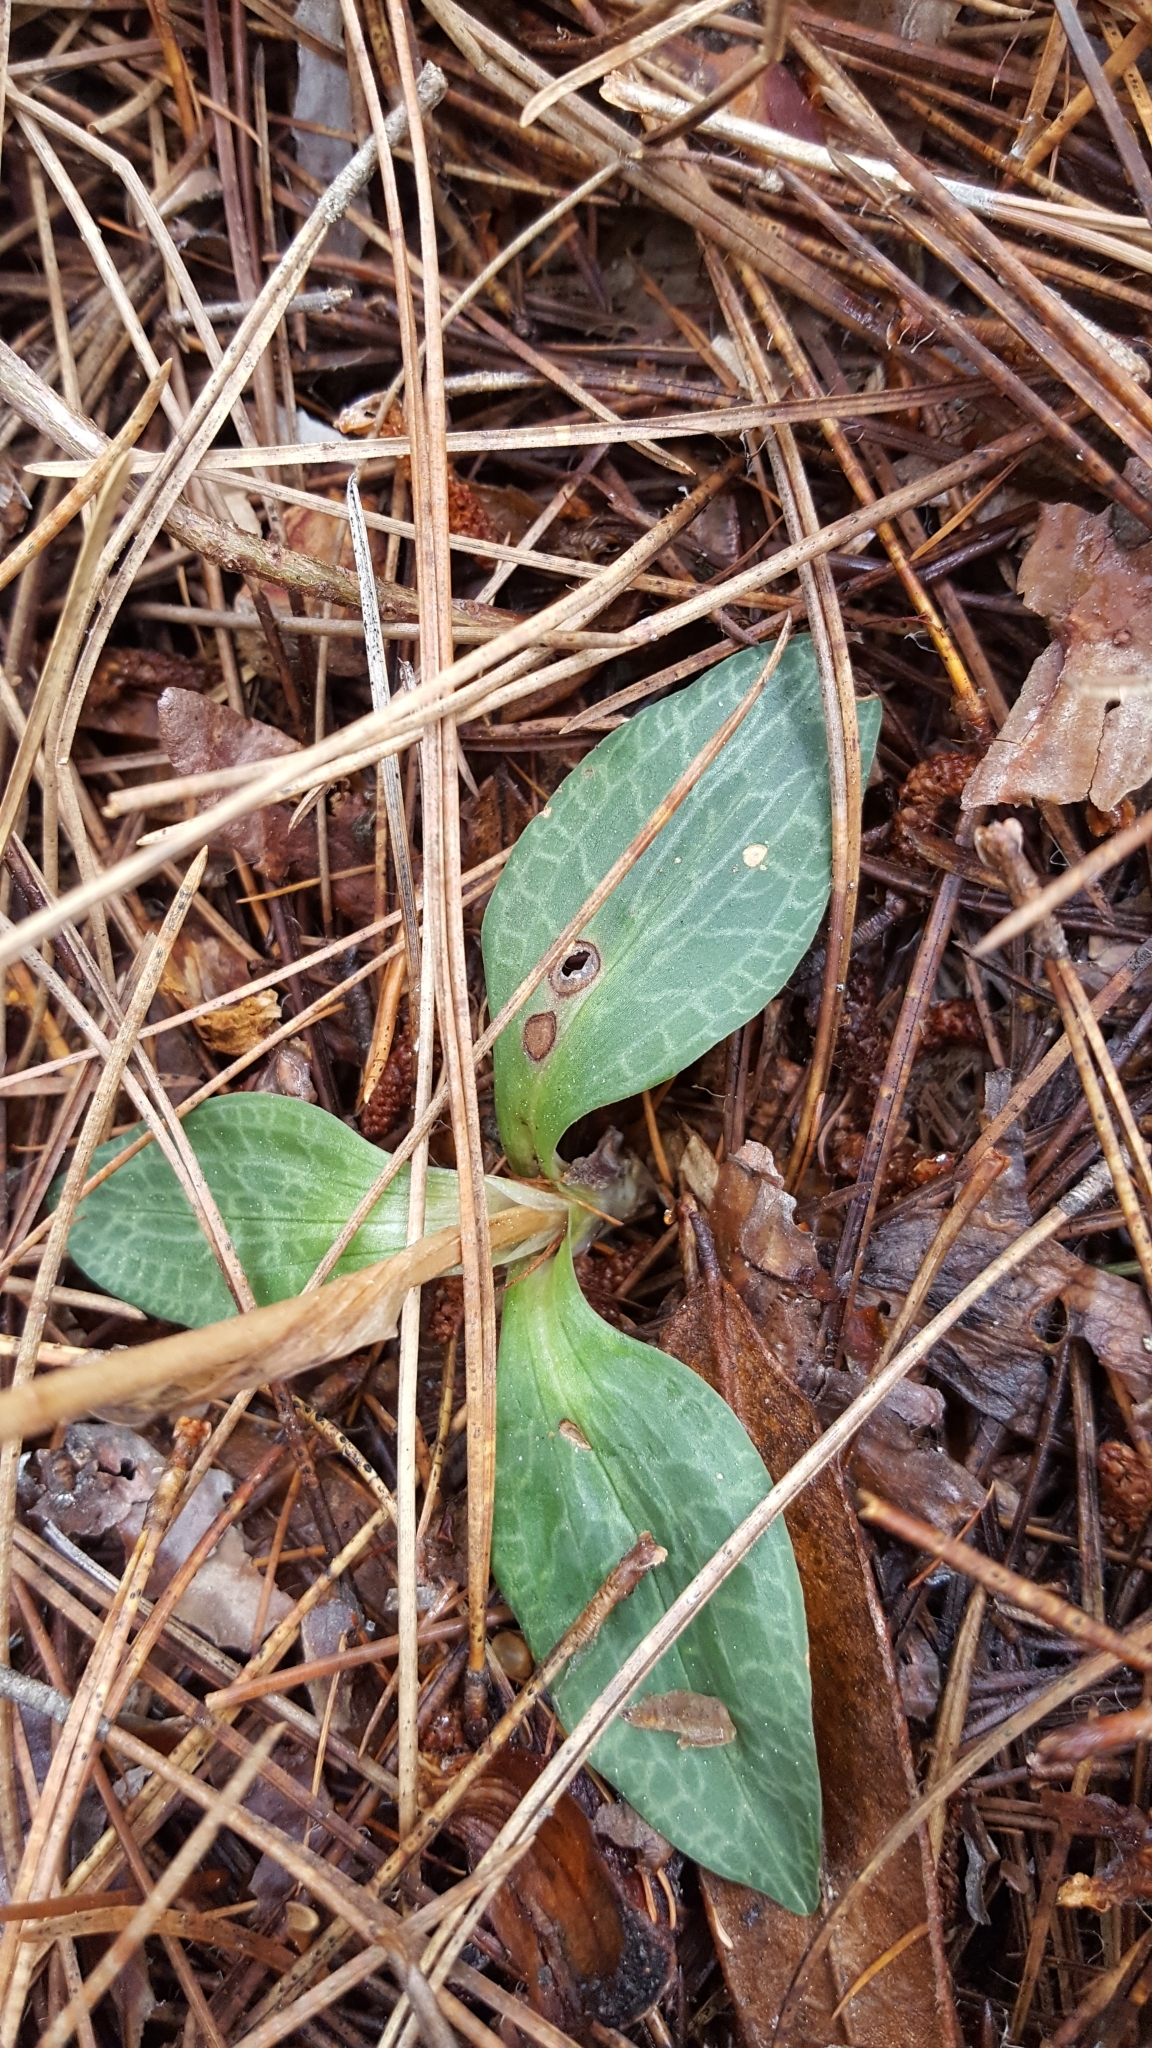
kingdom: Plantae
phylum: Tracheophyta
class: Liliopsida
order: Asparagales
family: Orchidaceae
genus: Goodyera
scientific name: Goodyera tesselata
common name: Checkered rattlesnake-plantain
